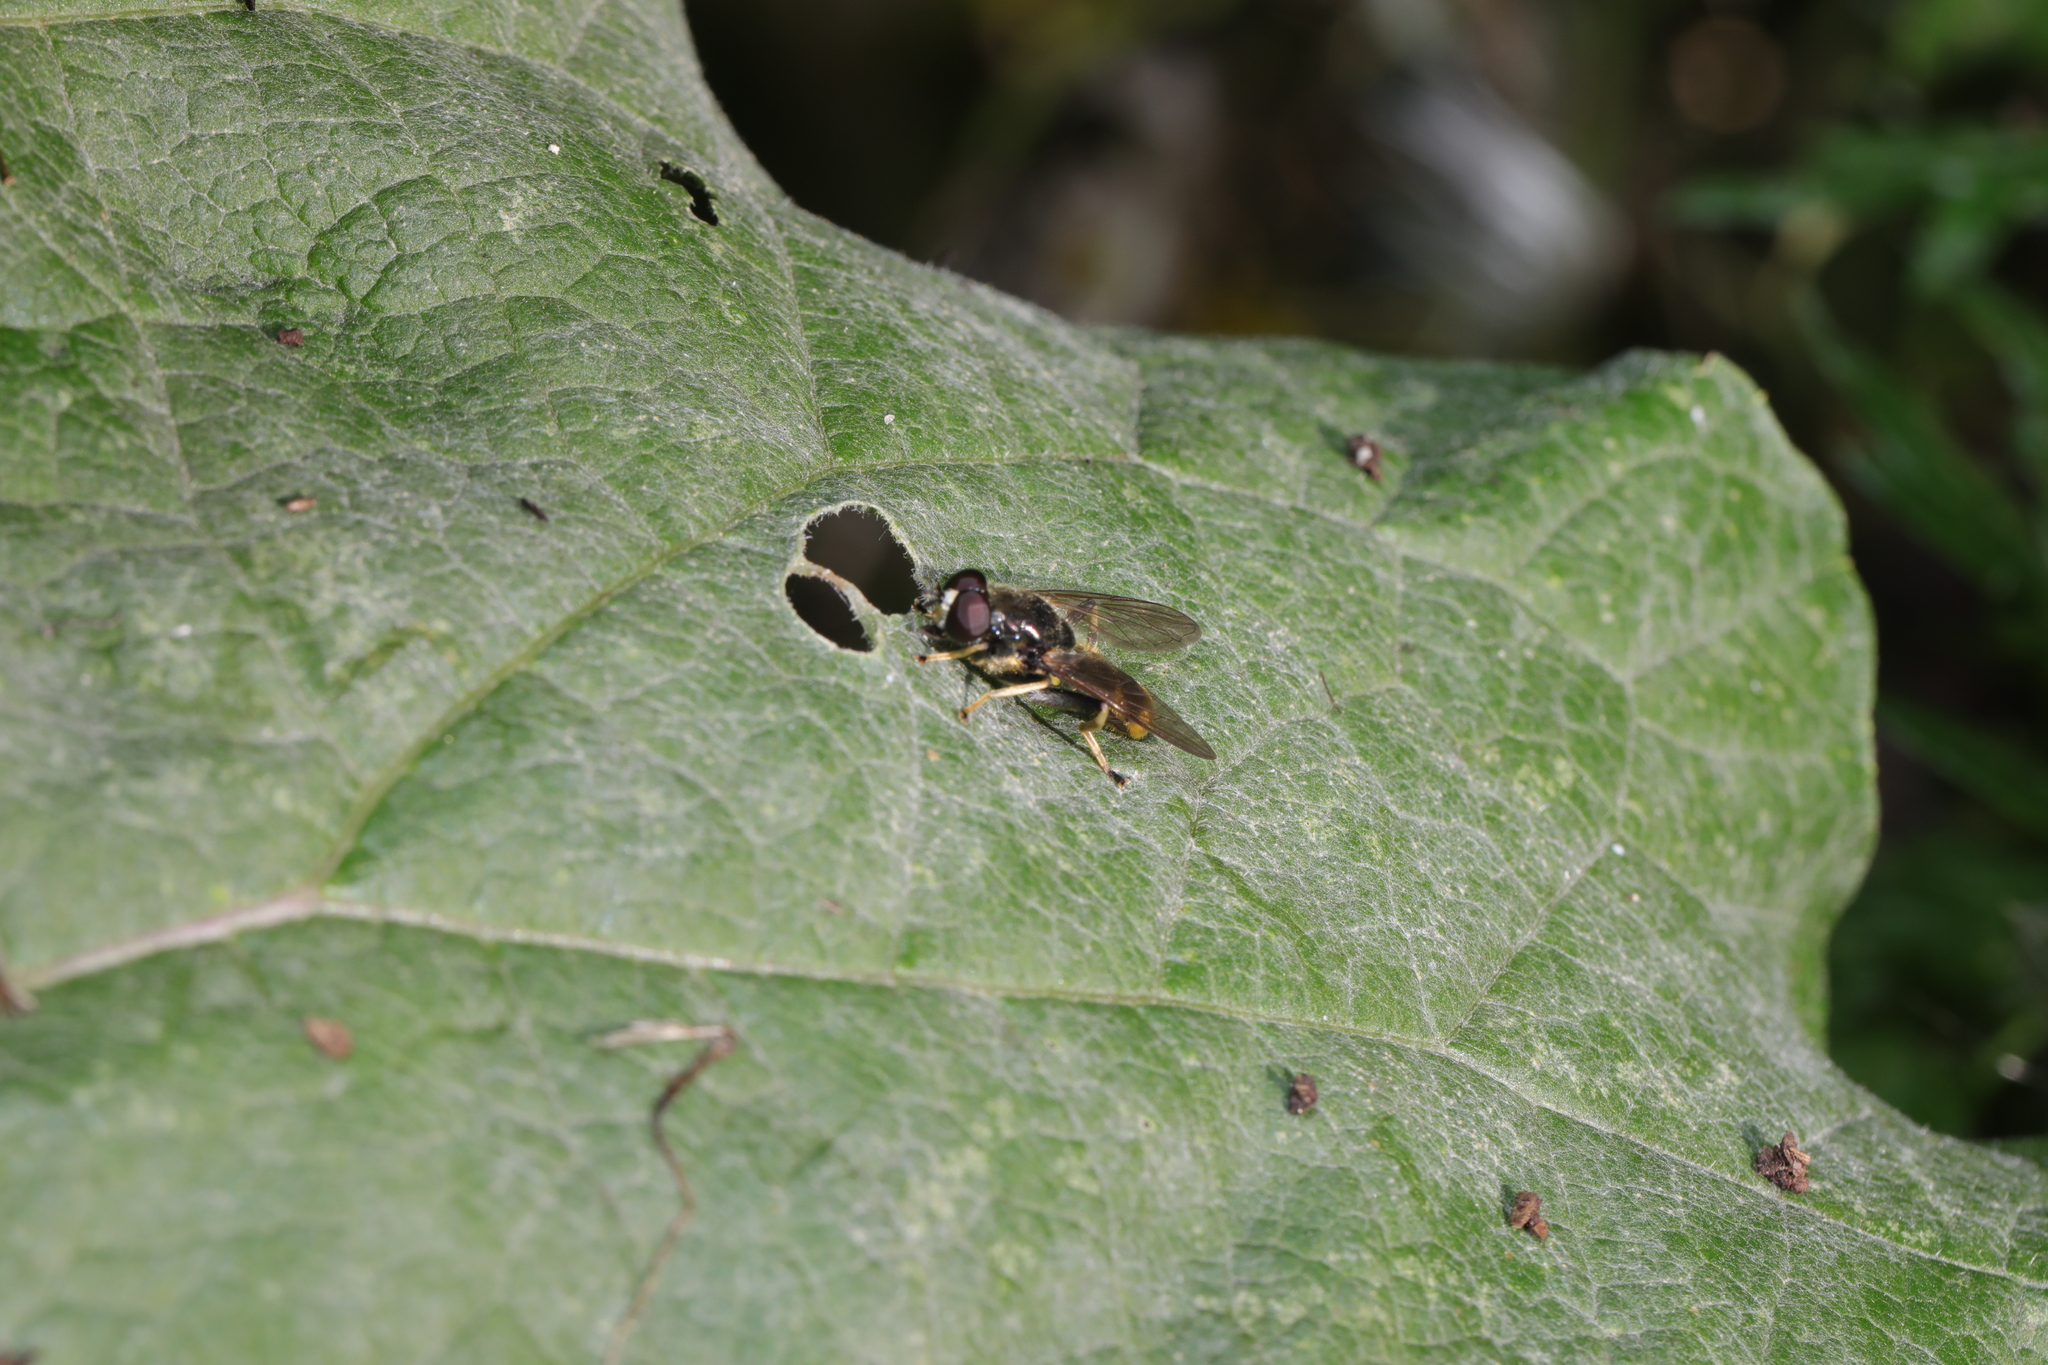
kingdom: Animalia
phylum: Arthropoda
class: Insecta
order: Diptera
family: Syrphidae
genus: Xylota
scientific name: Xylota sylvarum
